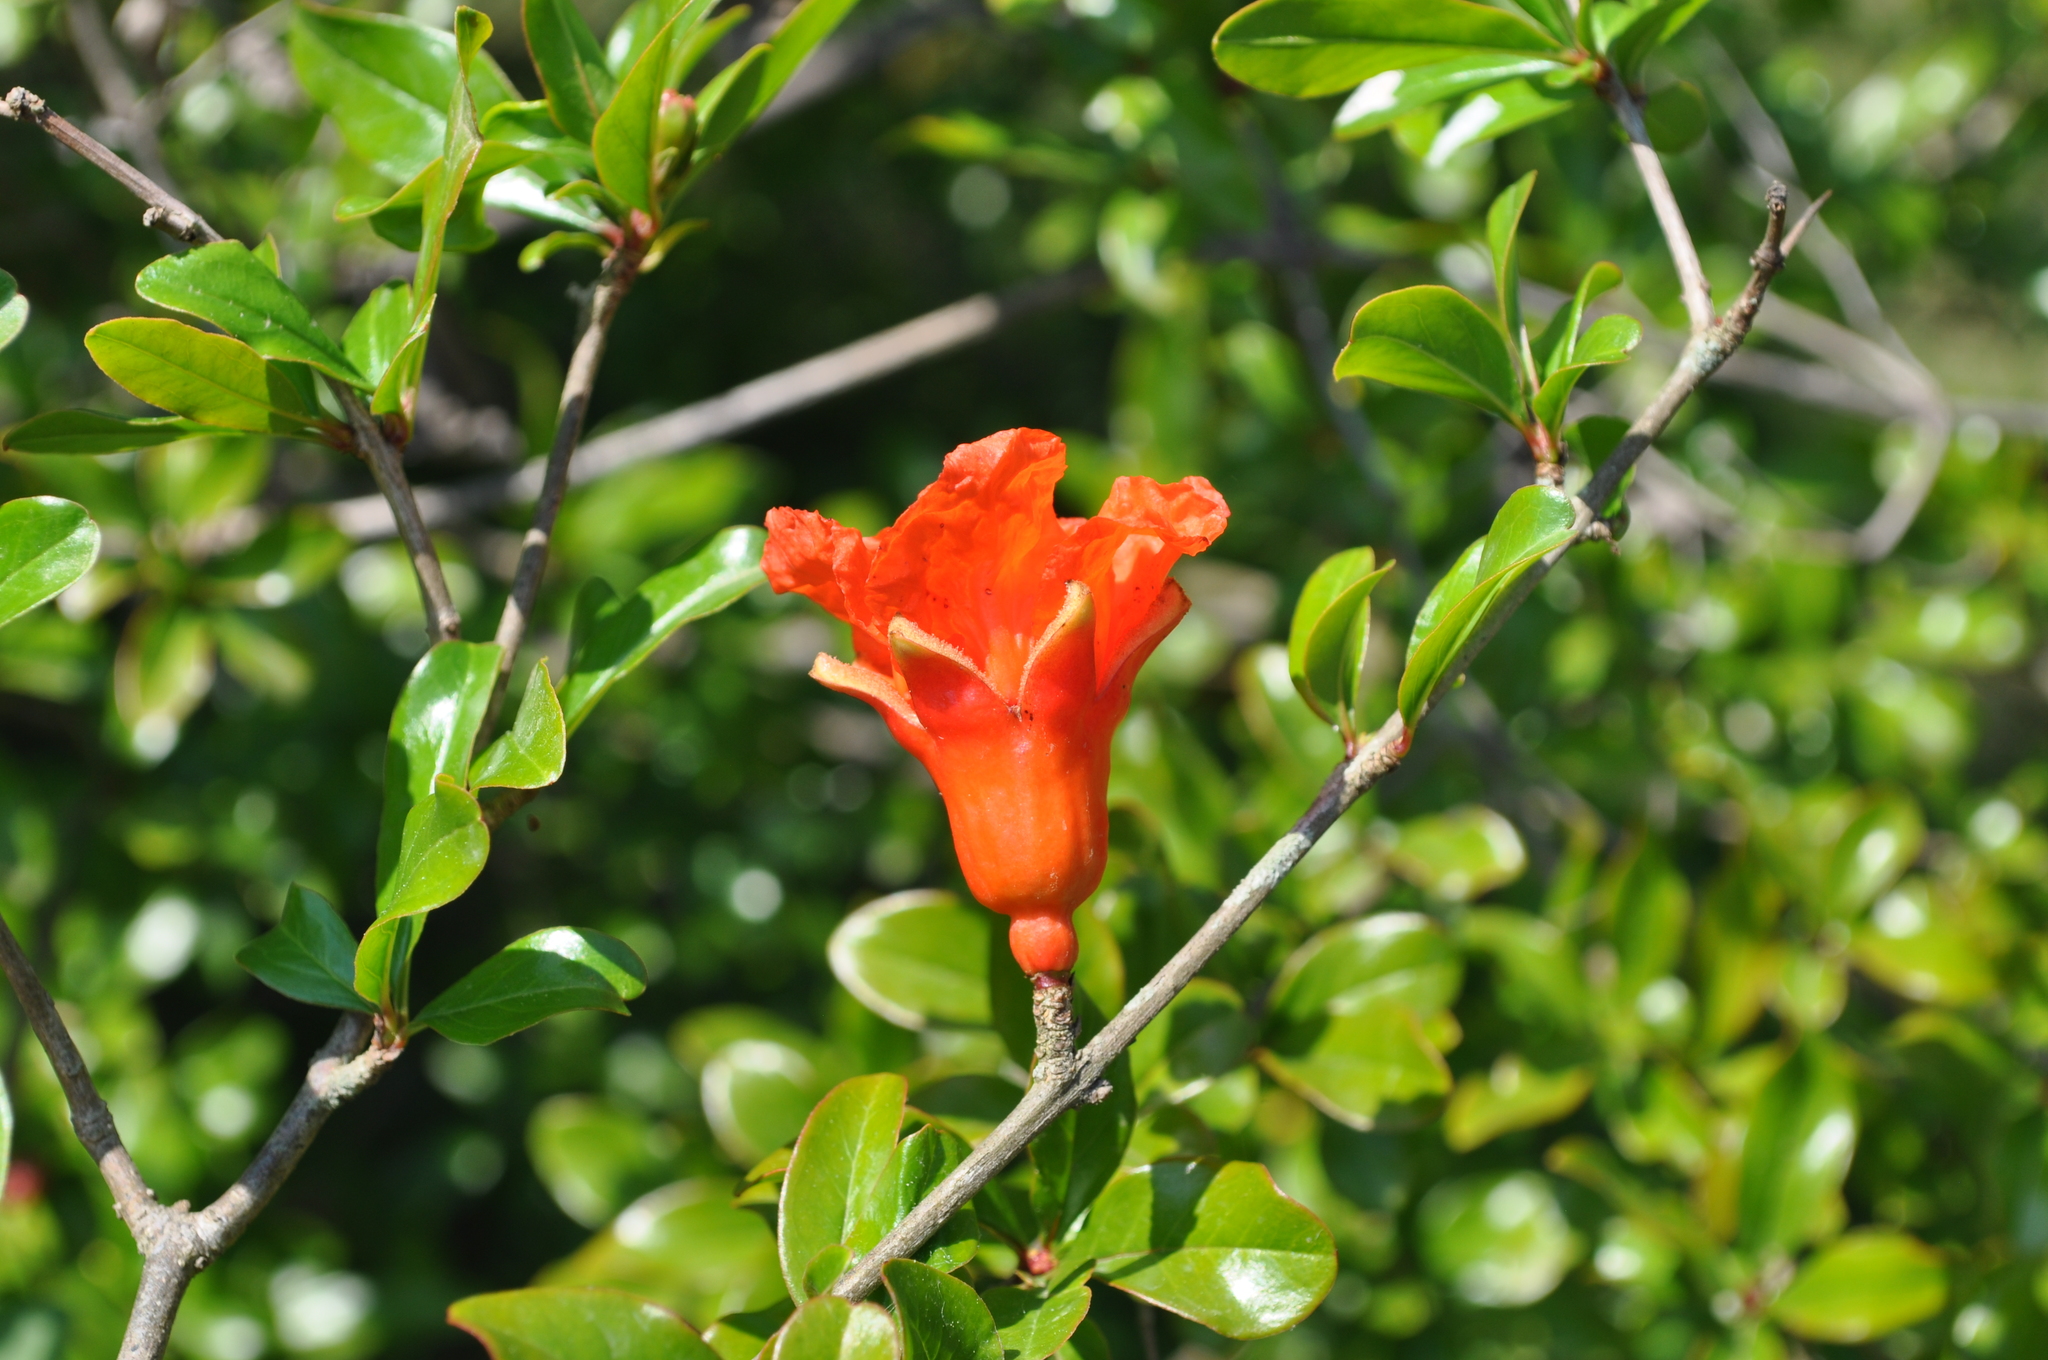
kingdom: Plantae
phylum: Tracheophyta
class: Magnoliopsida
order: Myrtales
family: Lythraceae
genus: Punica
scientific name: Punica granatum
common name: Pomegranate
